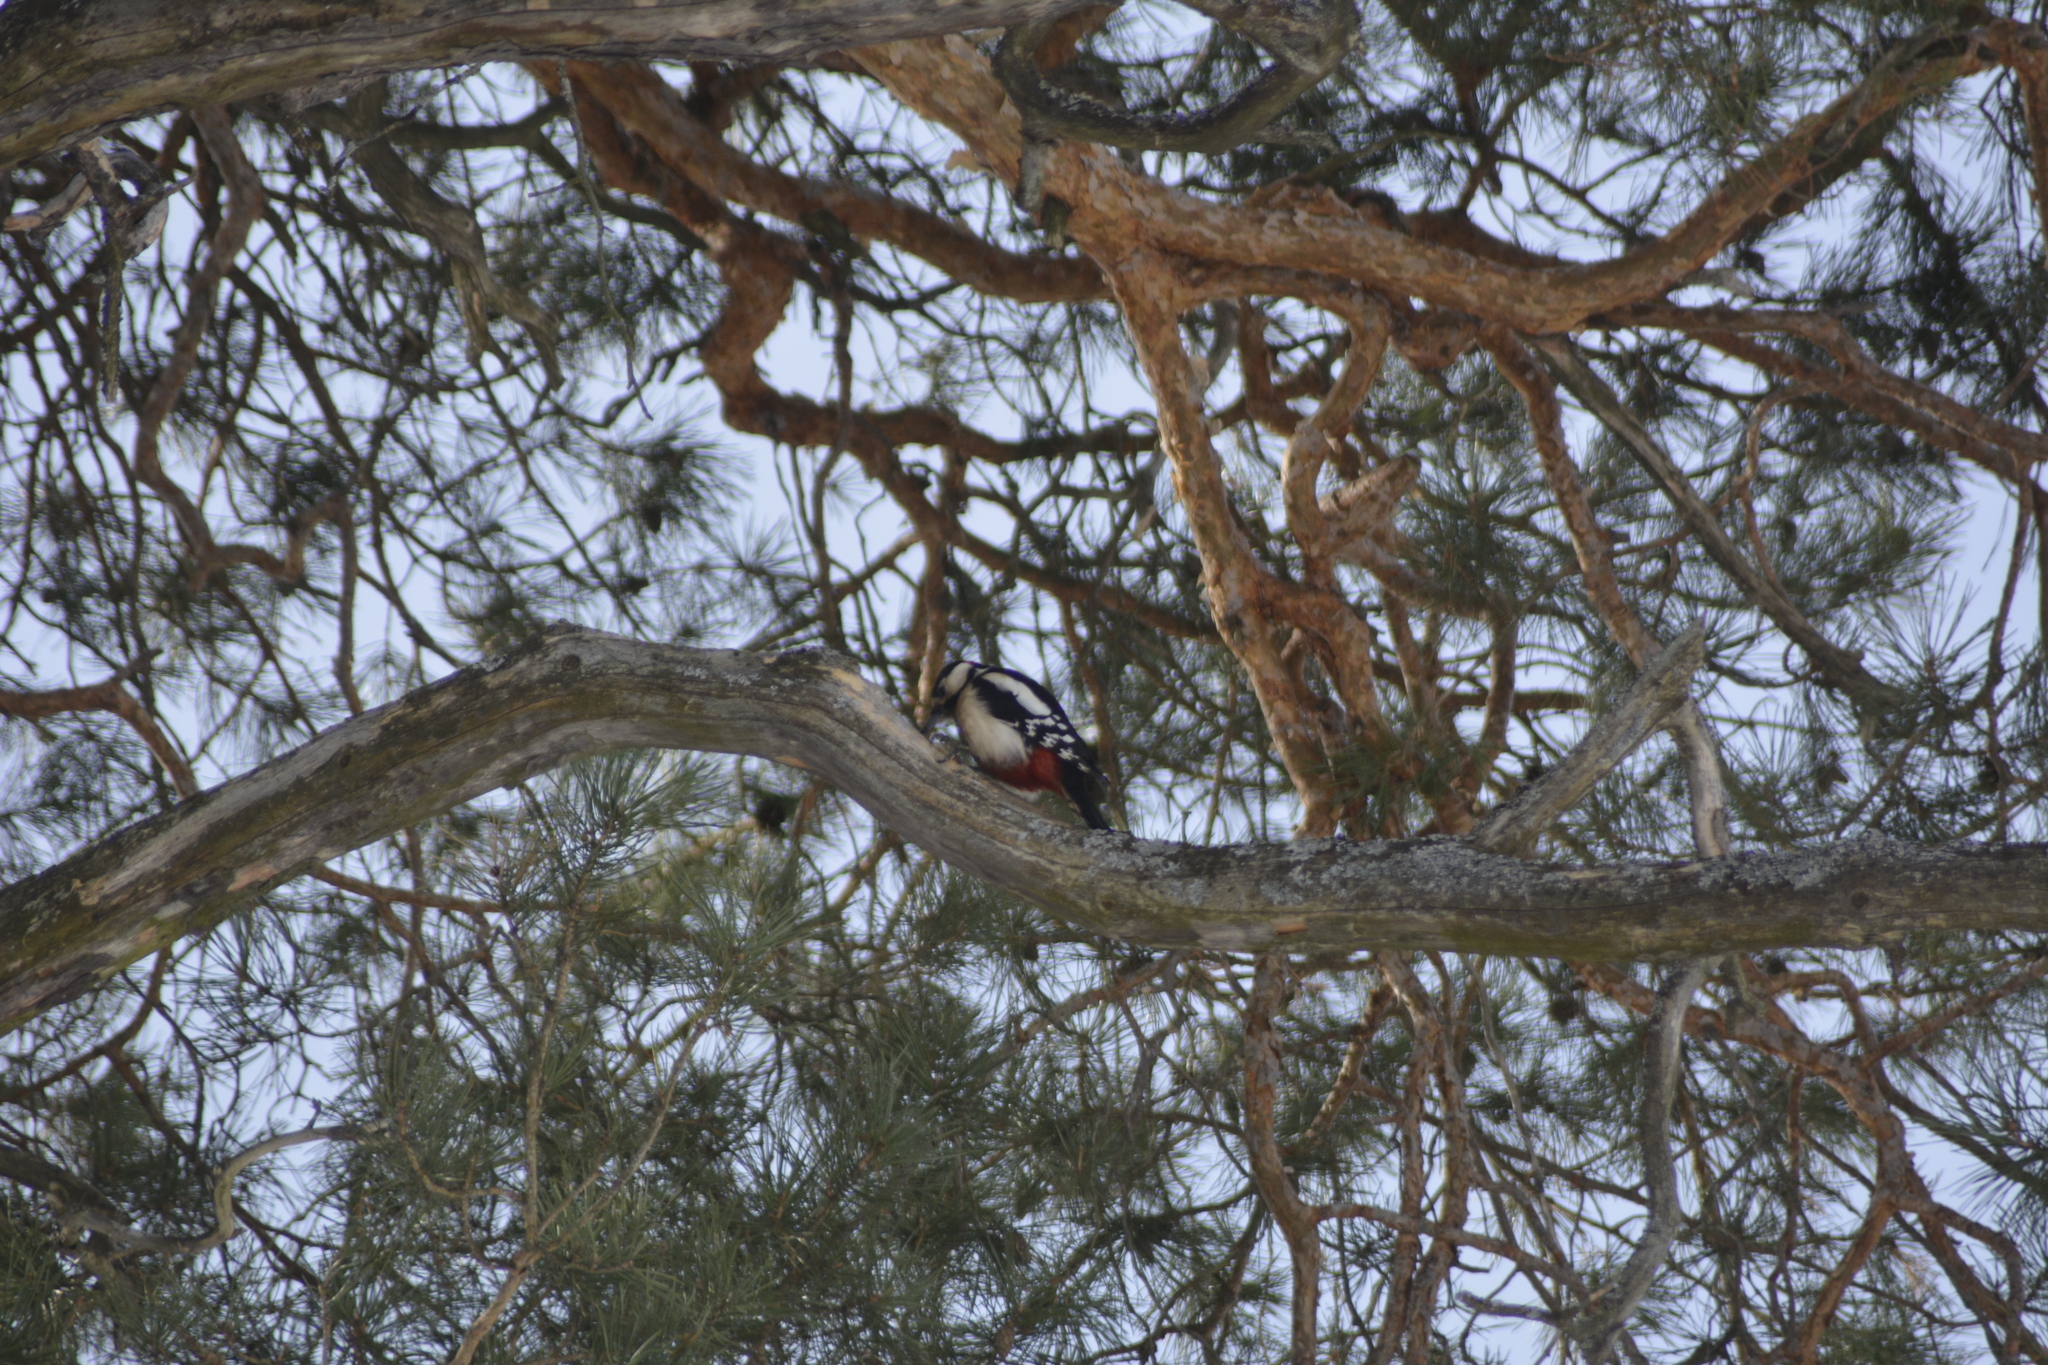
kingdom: Animalia
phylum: Chordata
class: Aves
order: Piciformes
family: Picidae
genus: Dendrocopos
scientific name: Dendrocopos major
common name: Great spotted woodpecker
